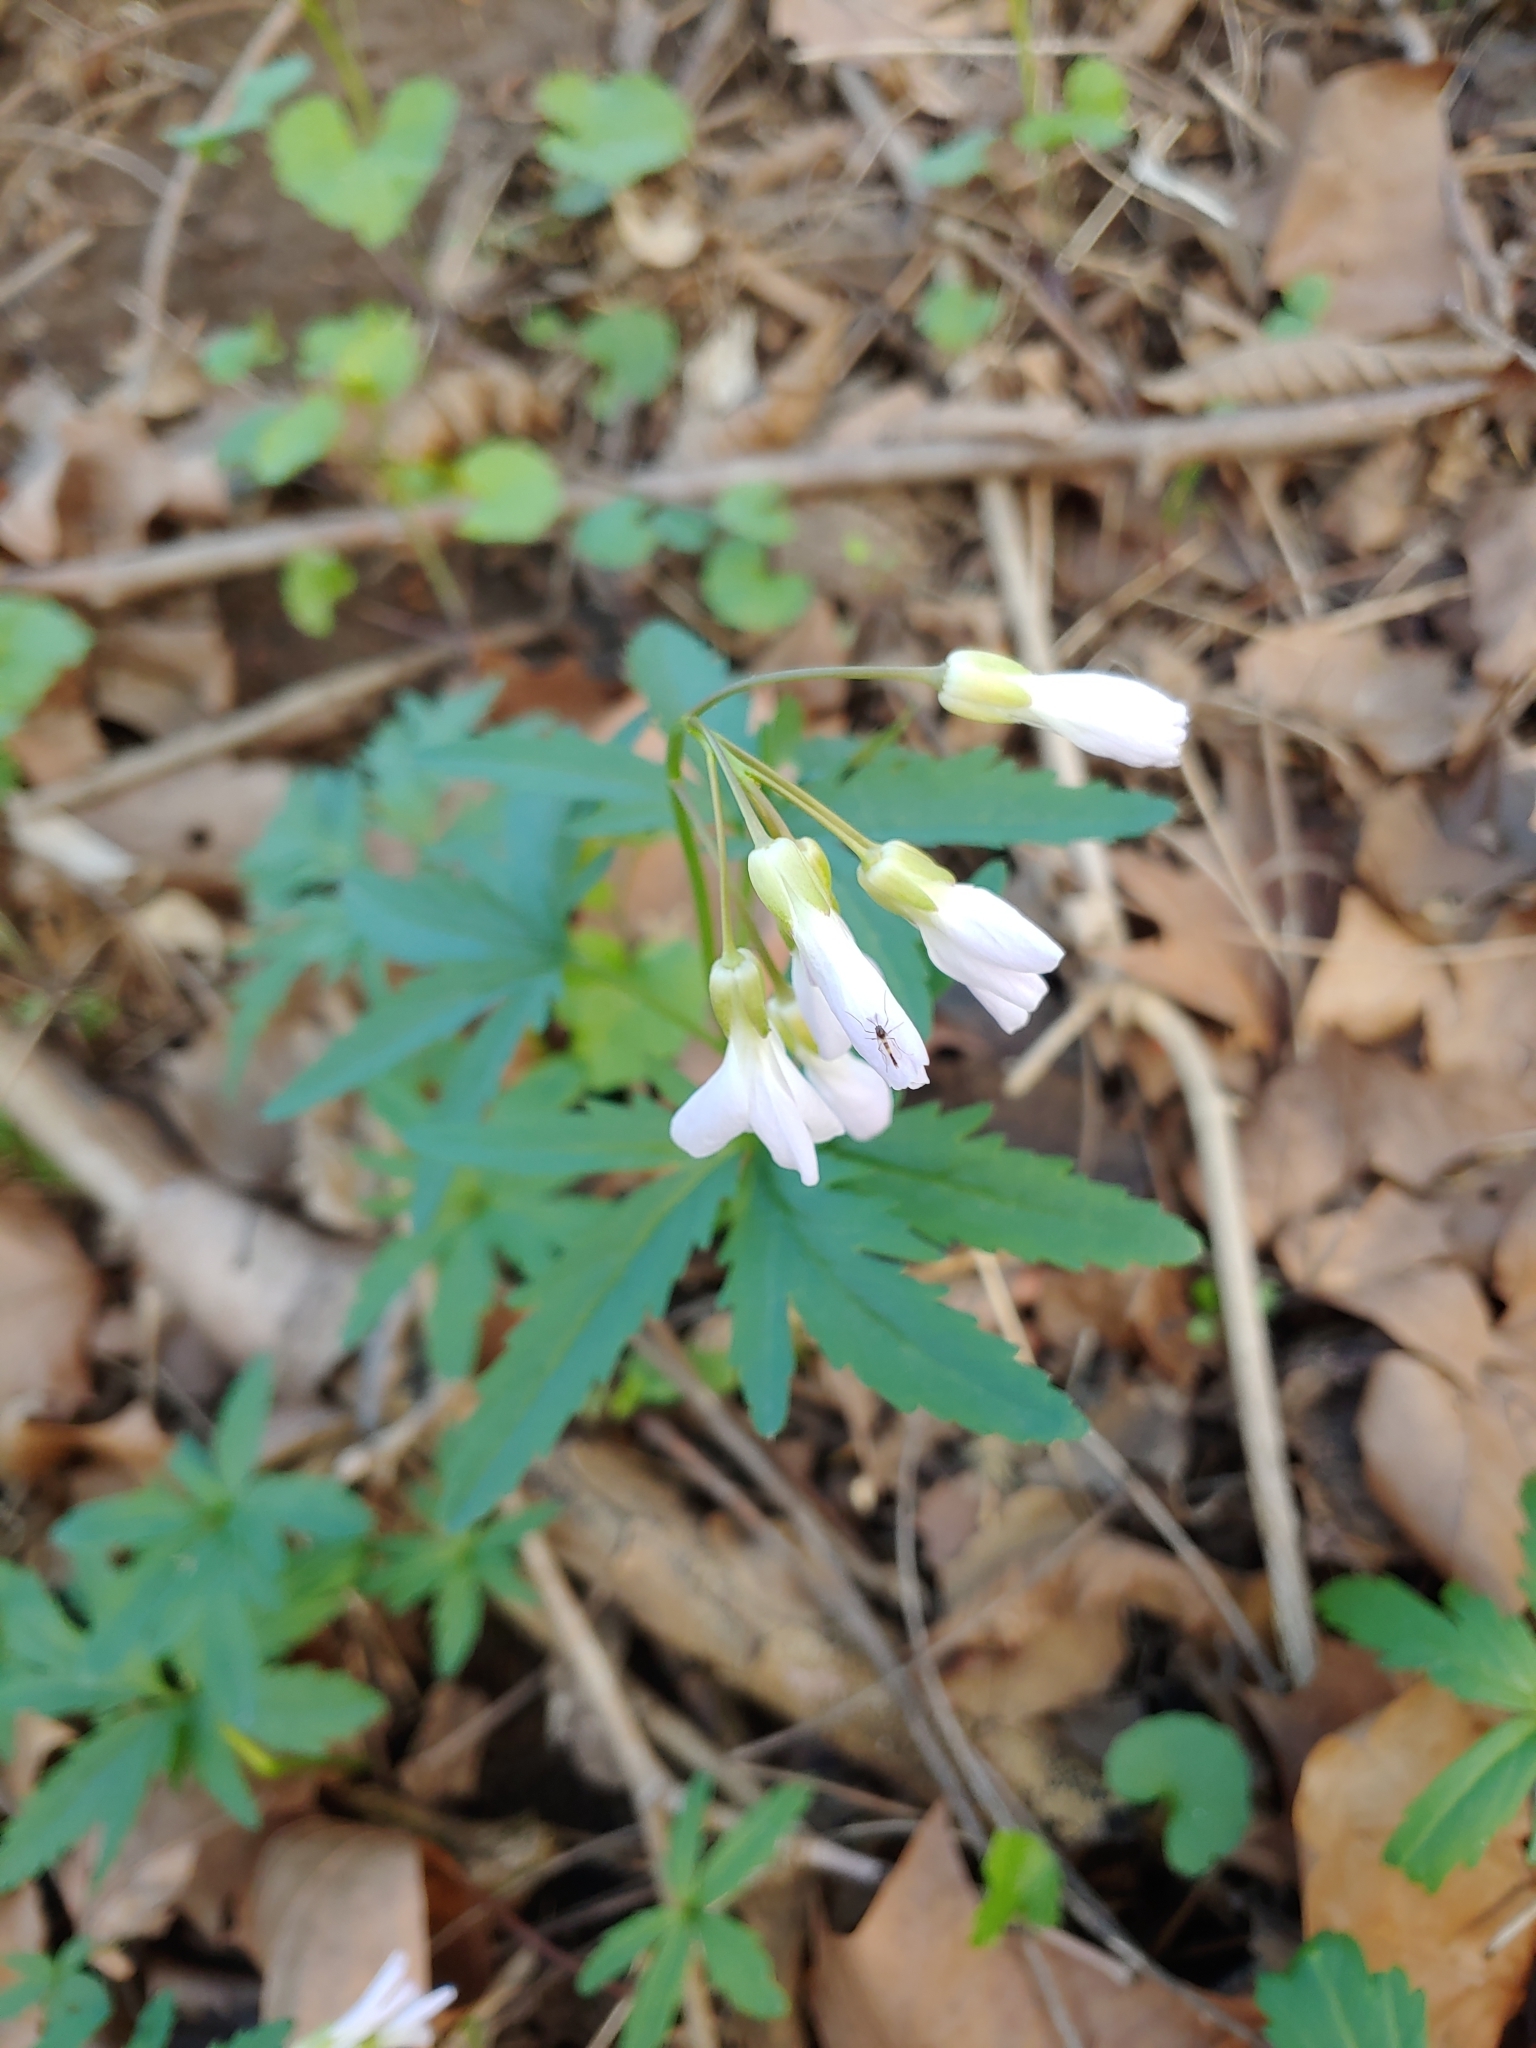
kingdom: Plantae
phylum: Tracheophyta
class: Magnoliopsida
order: Brassicales
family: Brassicaceae
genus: Cardamine
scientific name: Cardamine concatenata
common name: Cut-leaf toothcup
